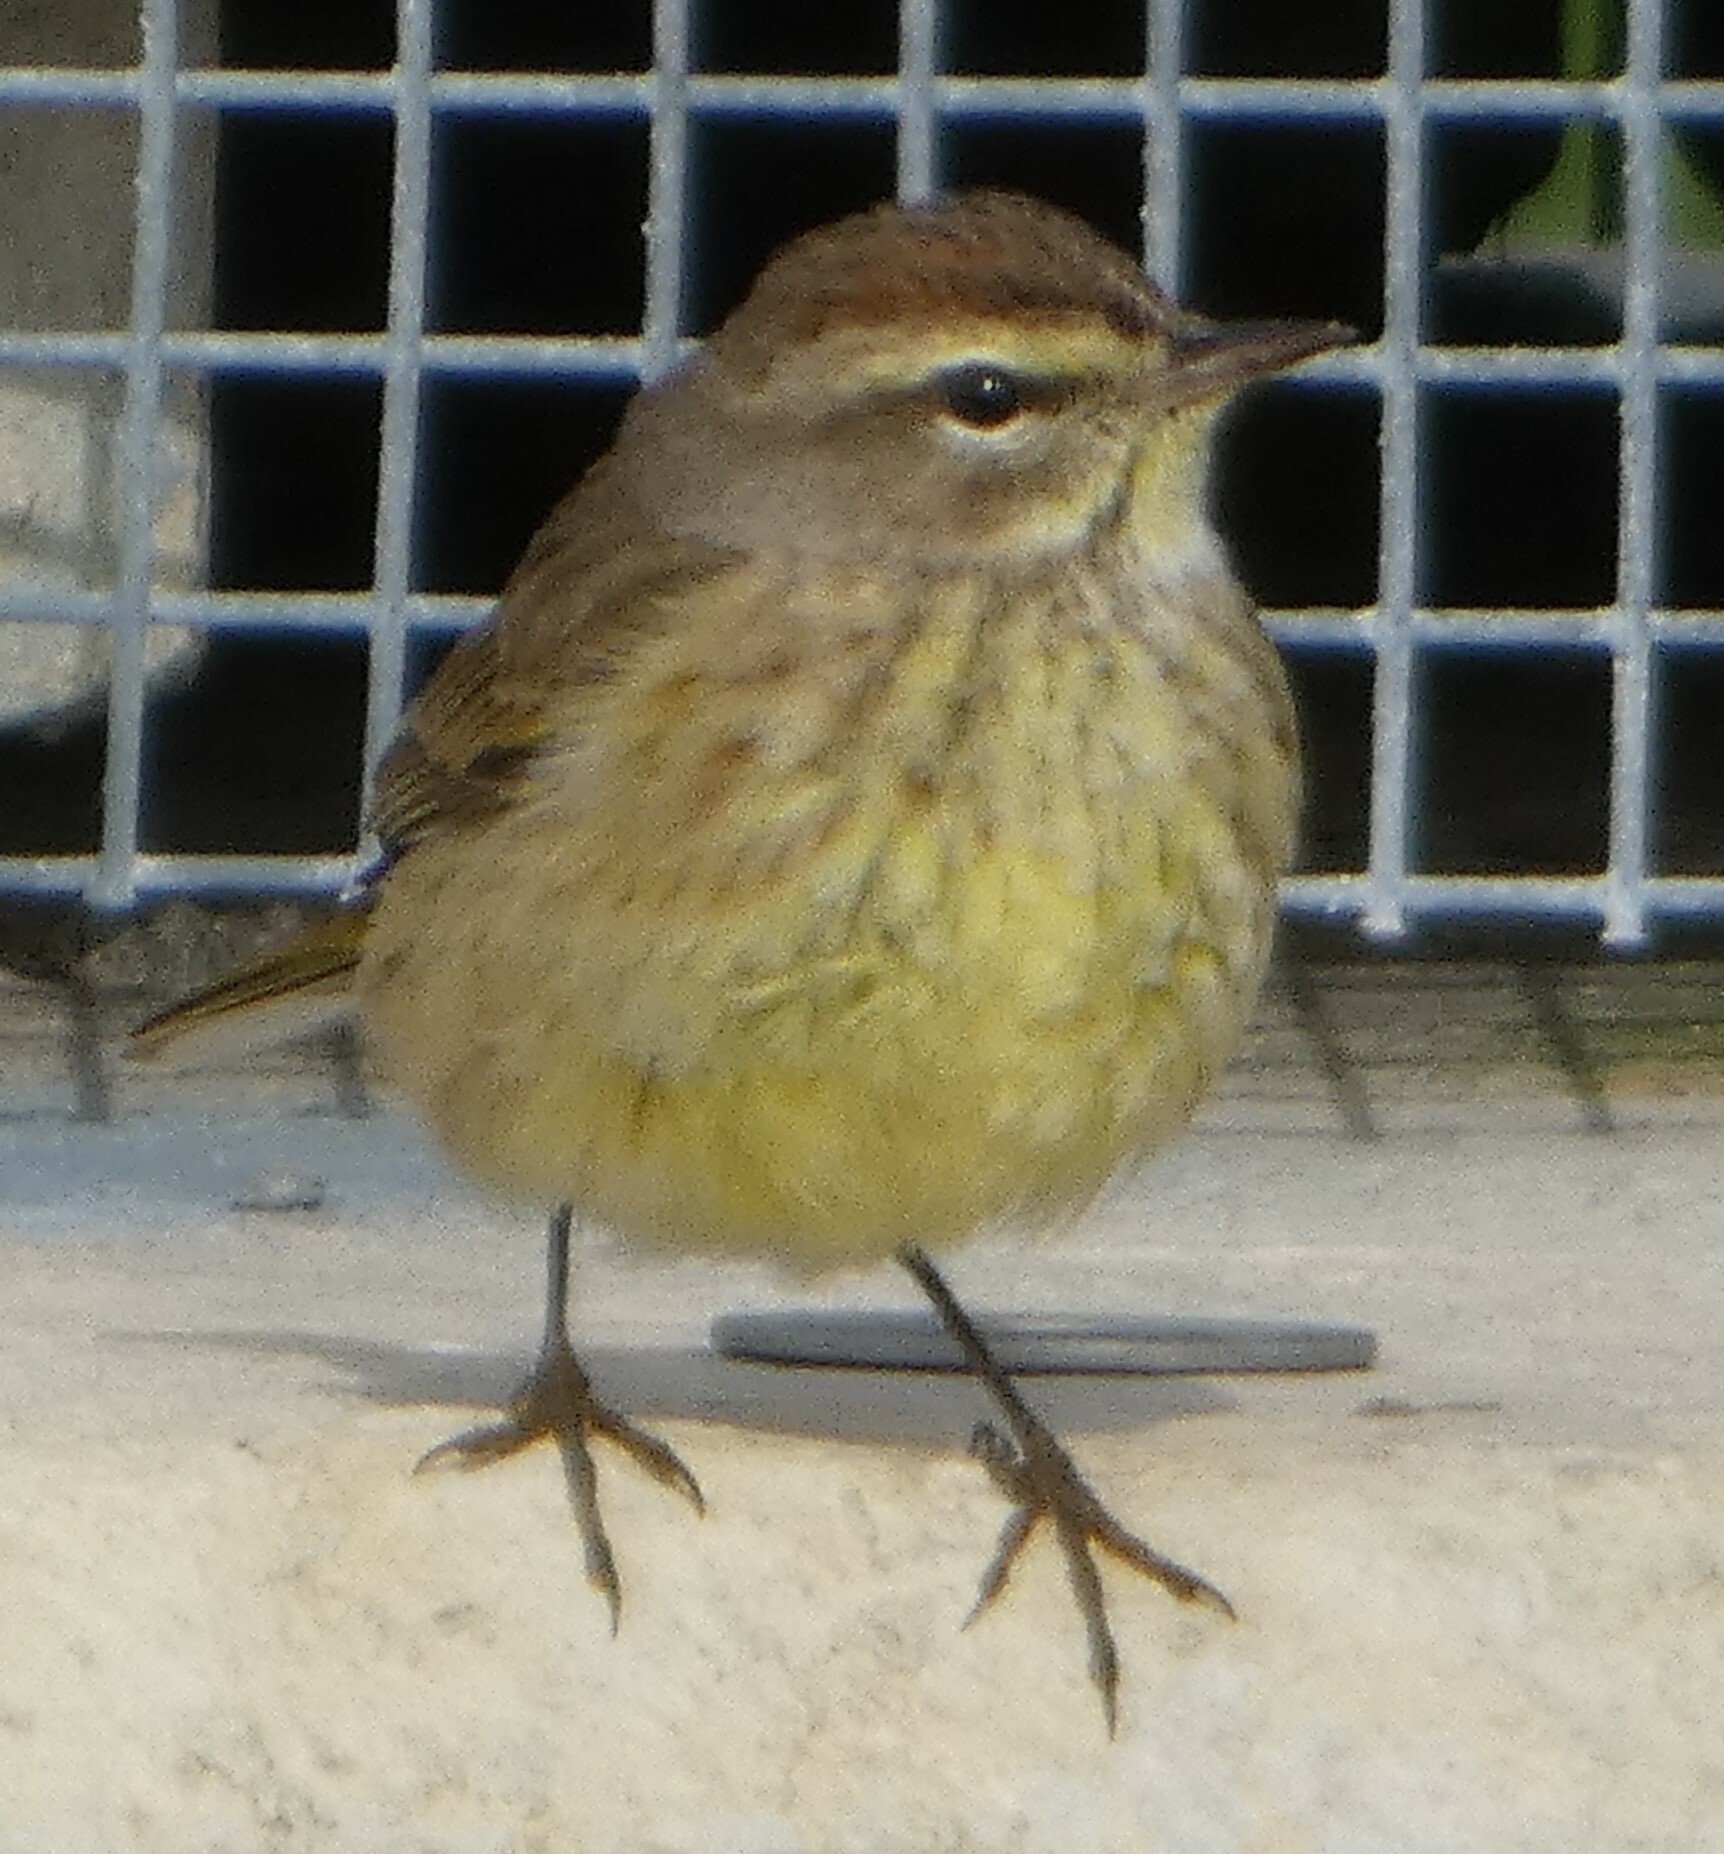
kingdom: Animalia
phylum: Chordata
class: Aves
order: Passeriformes
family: Parulidae
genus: Setophaga
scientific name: Setophaga palmarum
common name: Palm warbler
